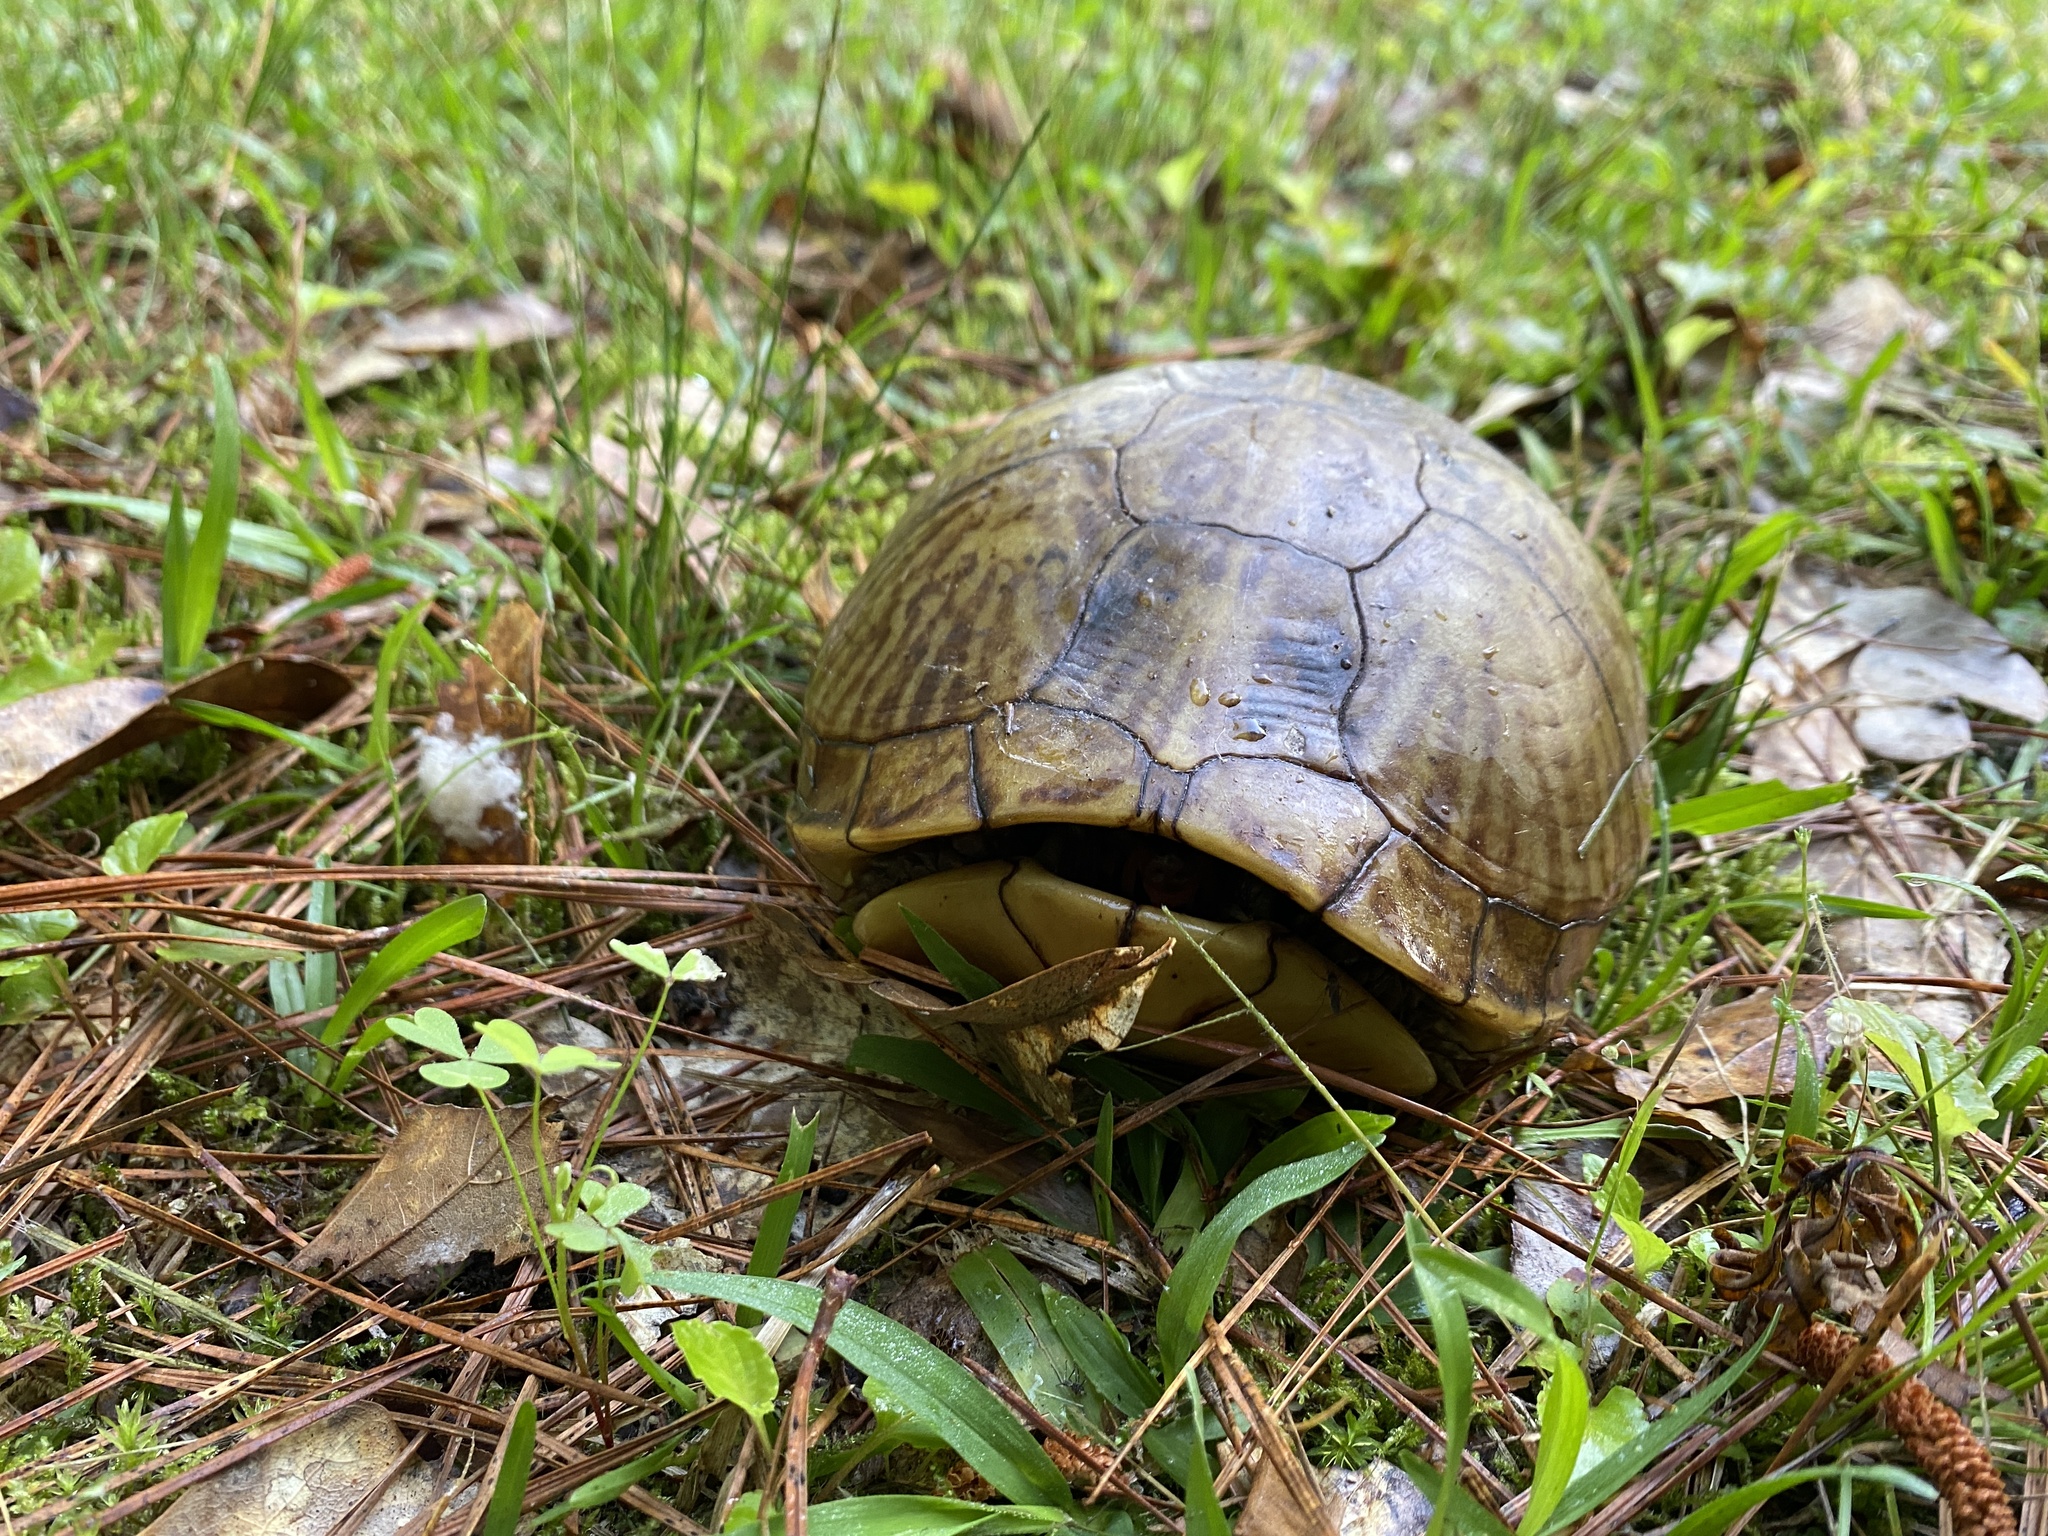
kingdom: Animalia
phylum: Chordata
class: Testudines
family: Emydidae
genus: Terrapene
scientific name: Terrapene carolina
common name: Common box turtle
